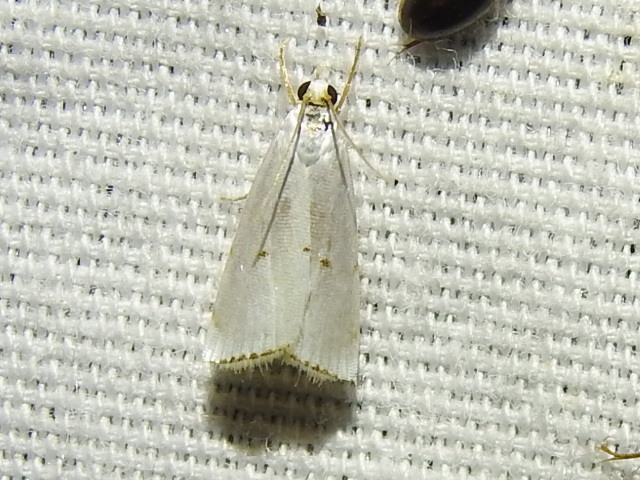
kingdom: Animalia
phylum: Arthropoda
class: Insecta
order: Lepidoptera
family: Crambidae
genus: Argyria
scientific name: Argyria pusillalis
